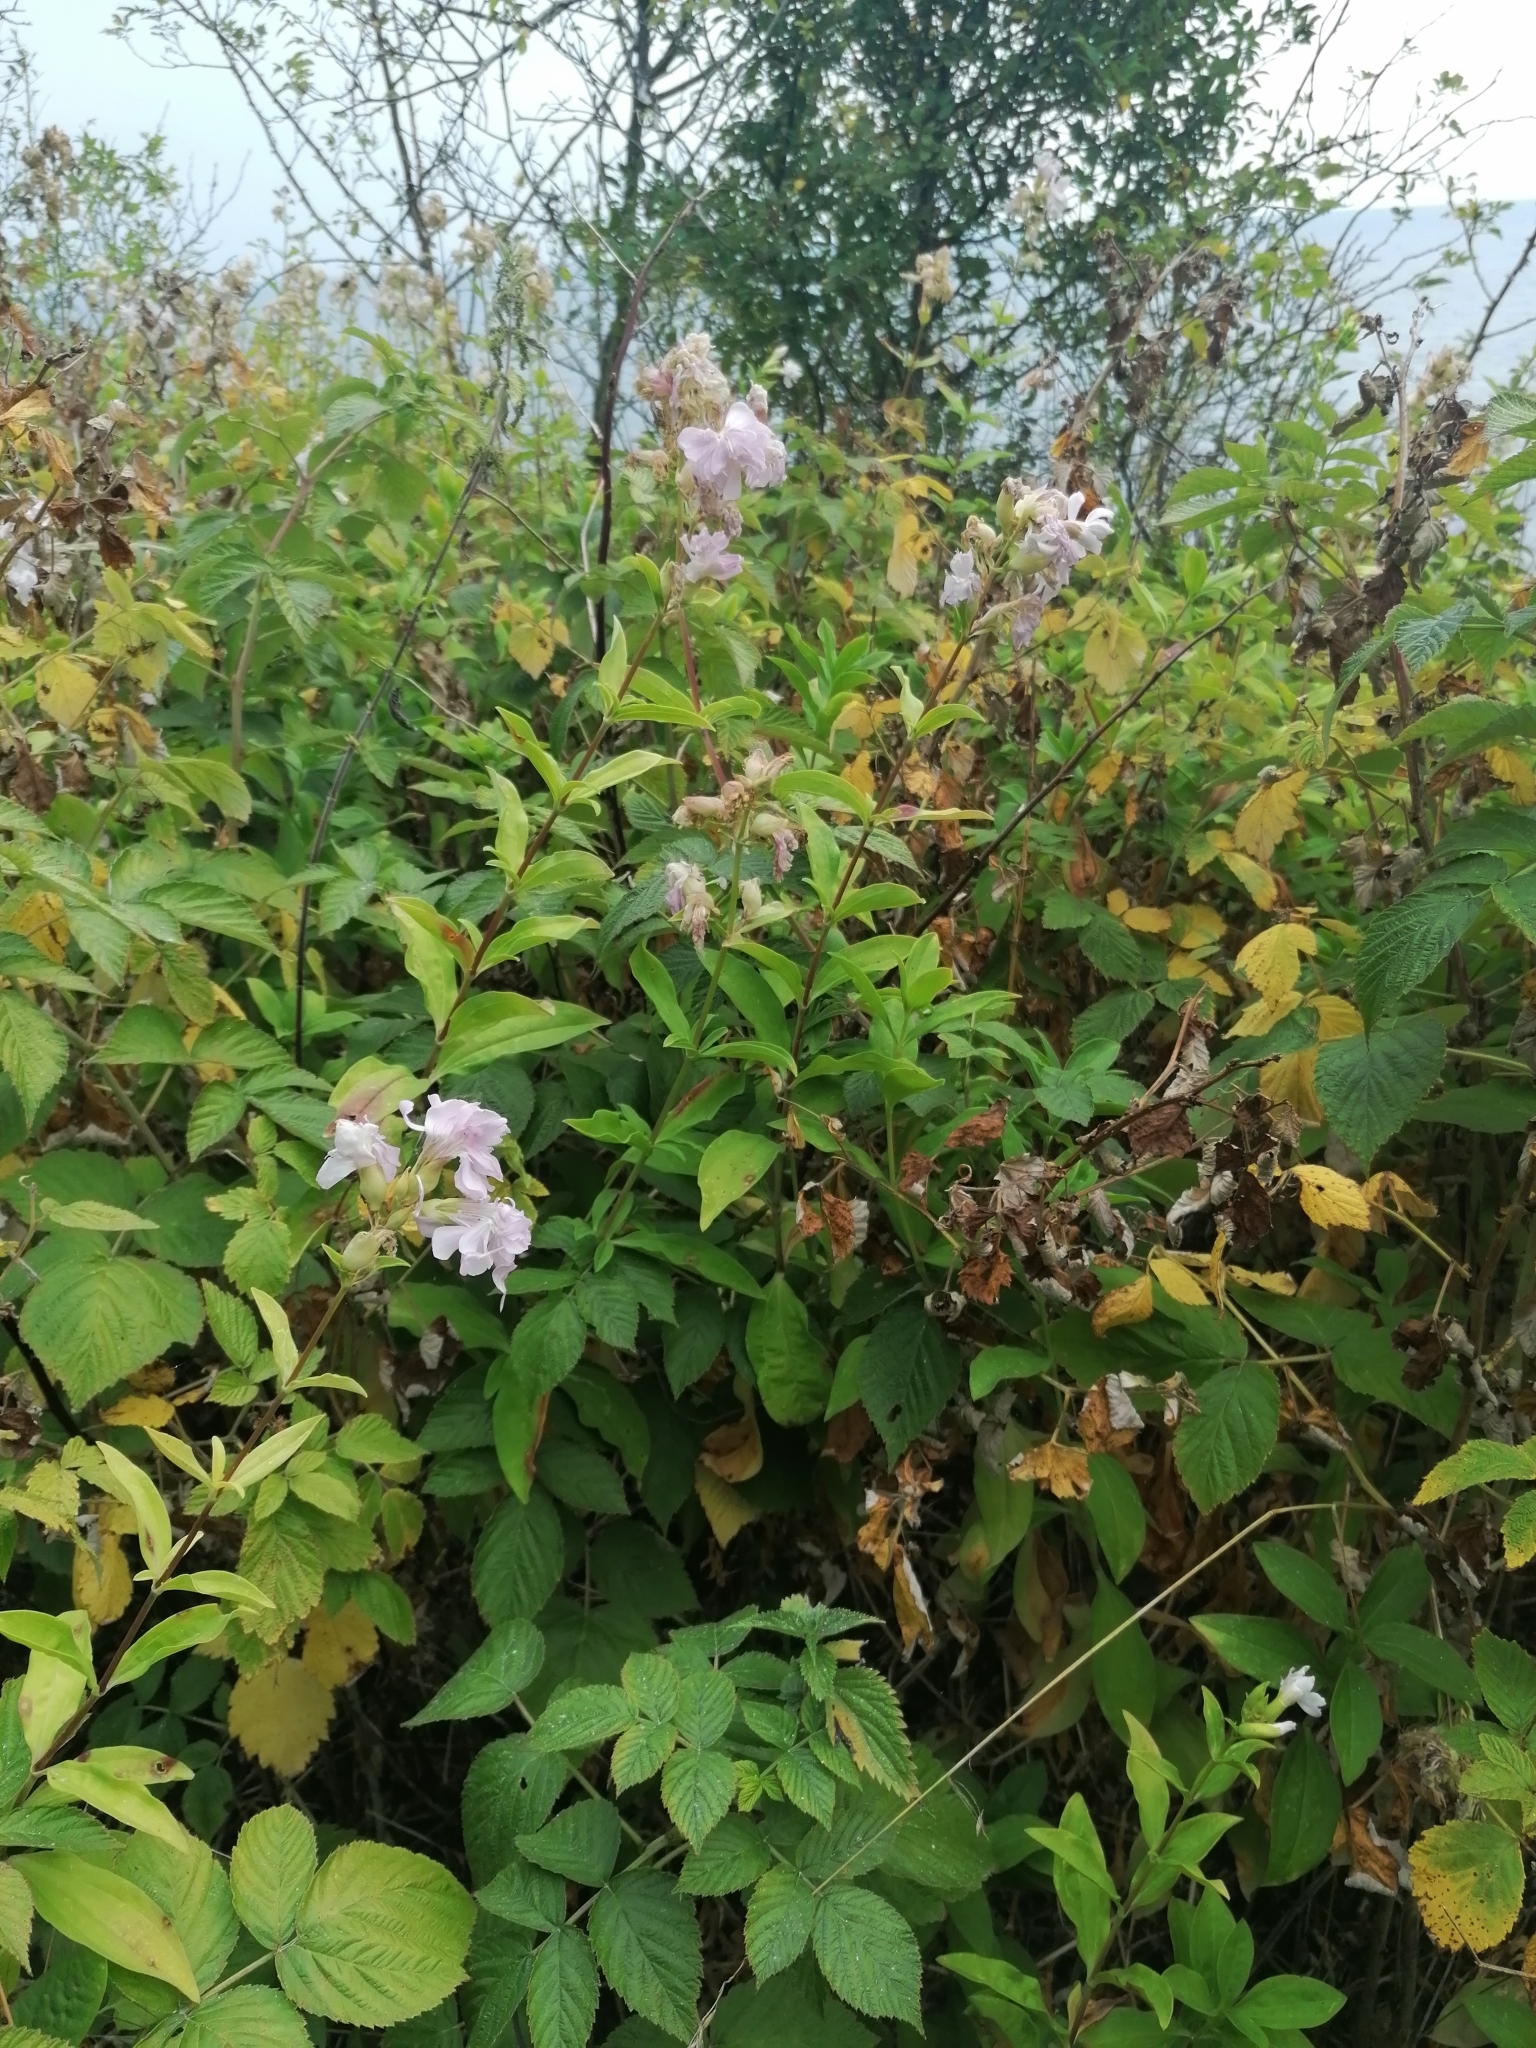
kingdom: Plantae
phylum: Tracheophyta
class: Magnoliopsida
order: Caryophyllales
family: Caryophyllaceae
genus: Saponaria
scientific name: Saponaria officinalis
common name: Soapwort
